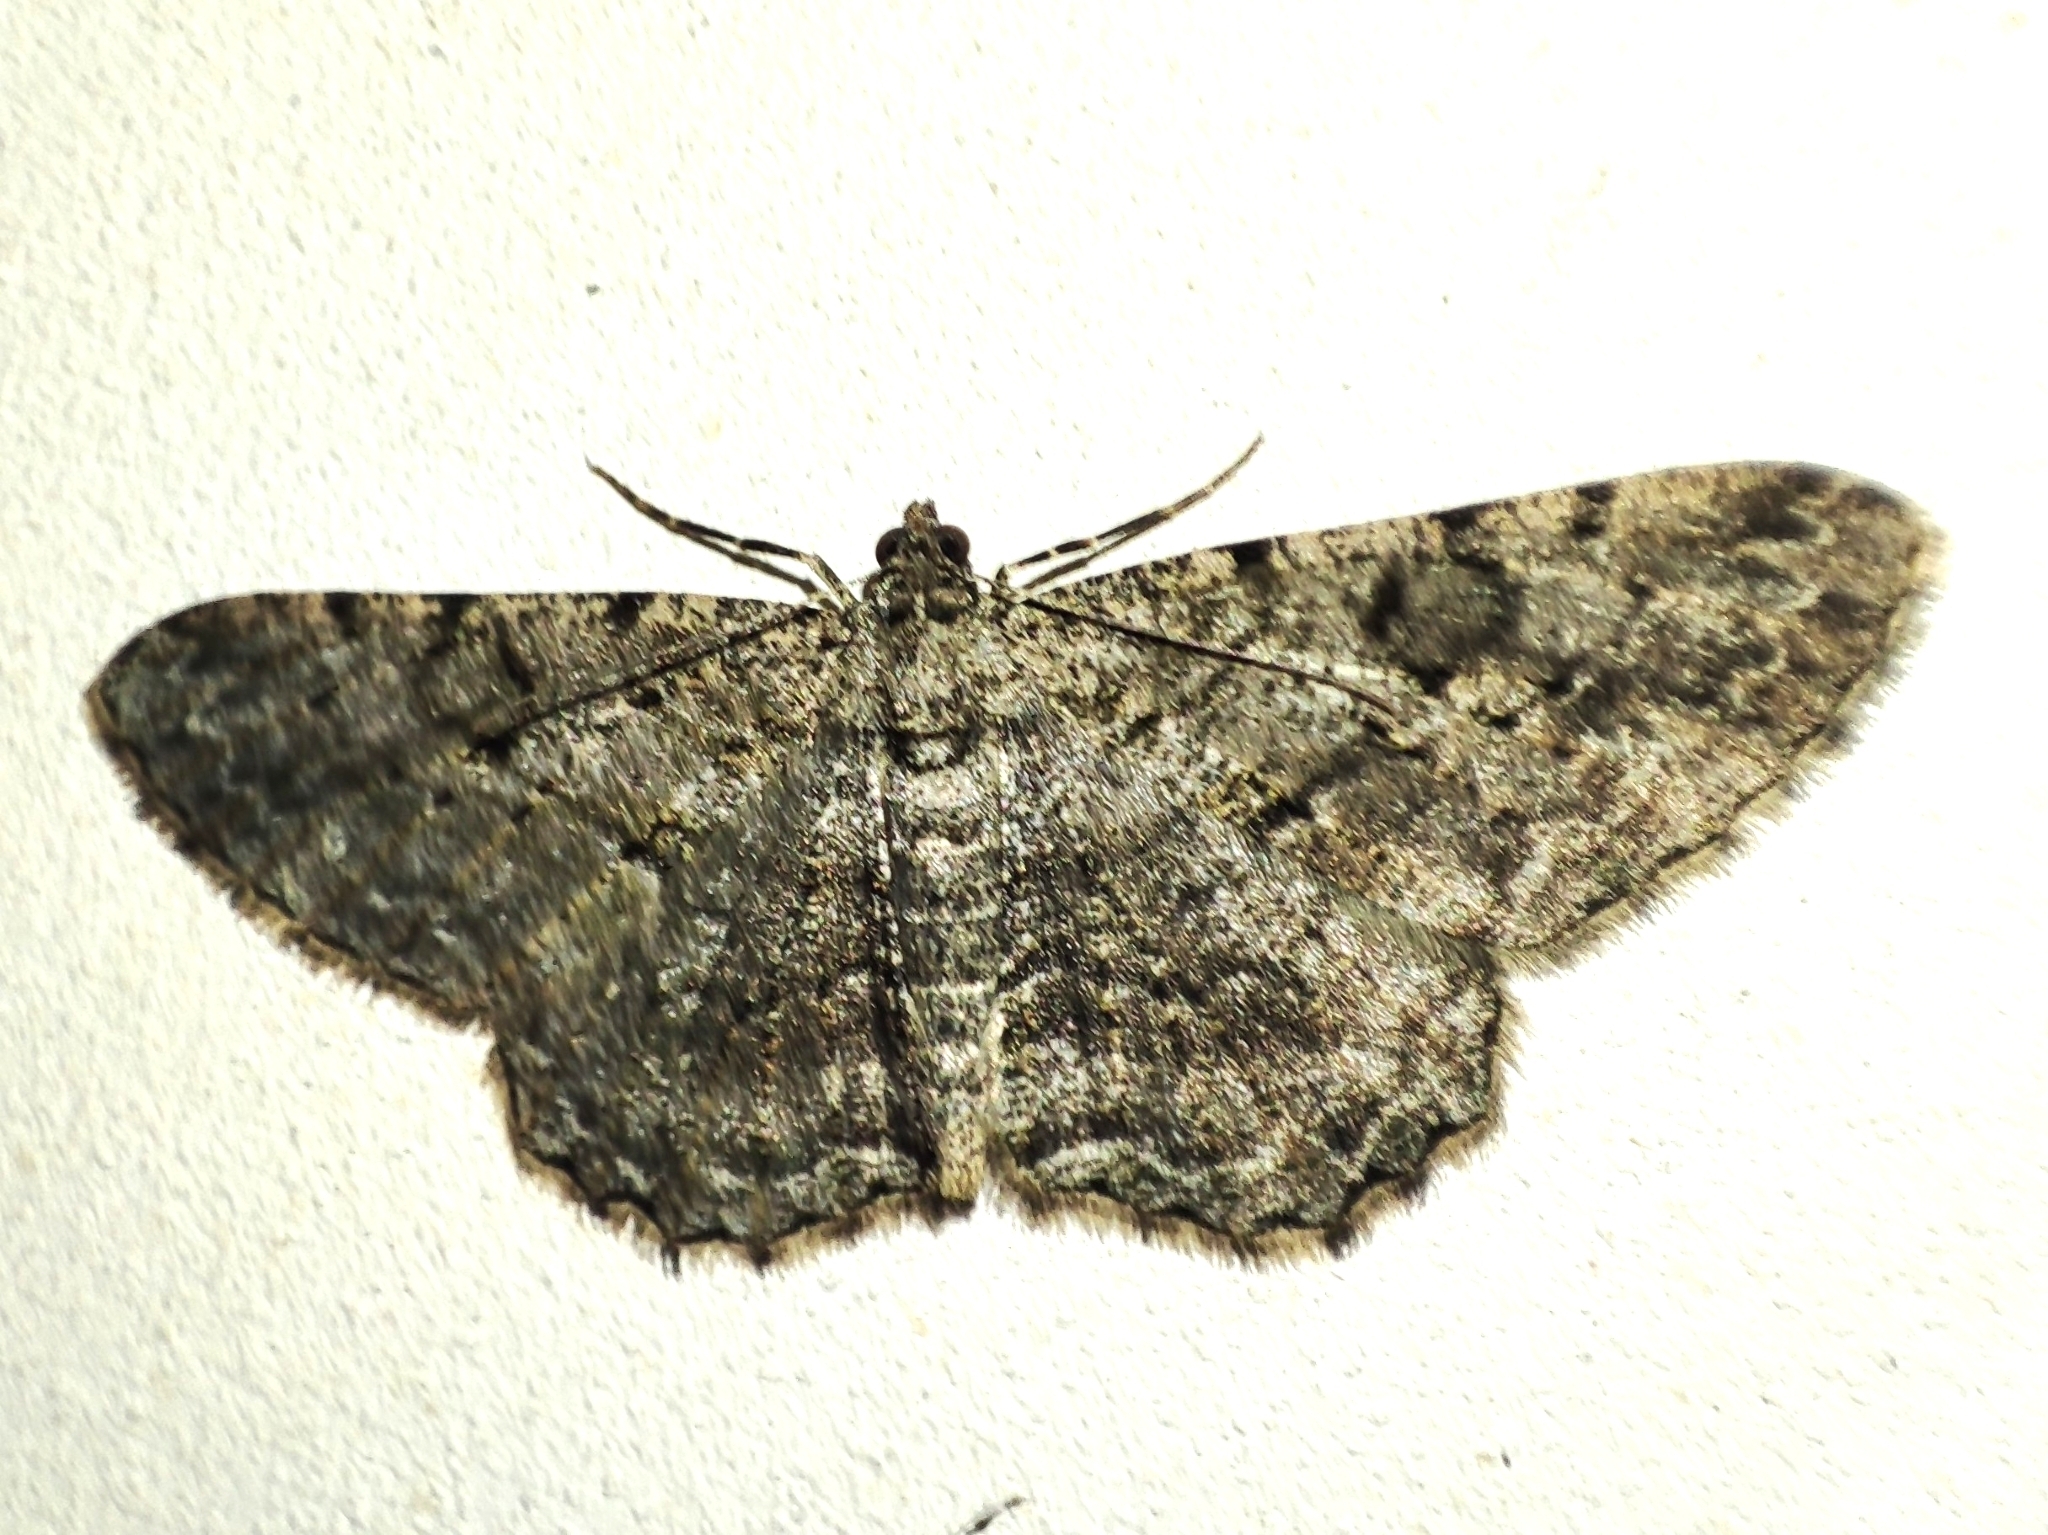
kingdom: Animalia
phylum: Arthropoda
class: Insecta
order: Lepidoptera
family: Geometridae
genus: Peribatodes
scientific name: Peribatodes rhomboidaria
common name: Willow beauty
